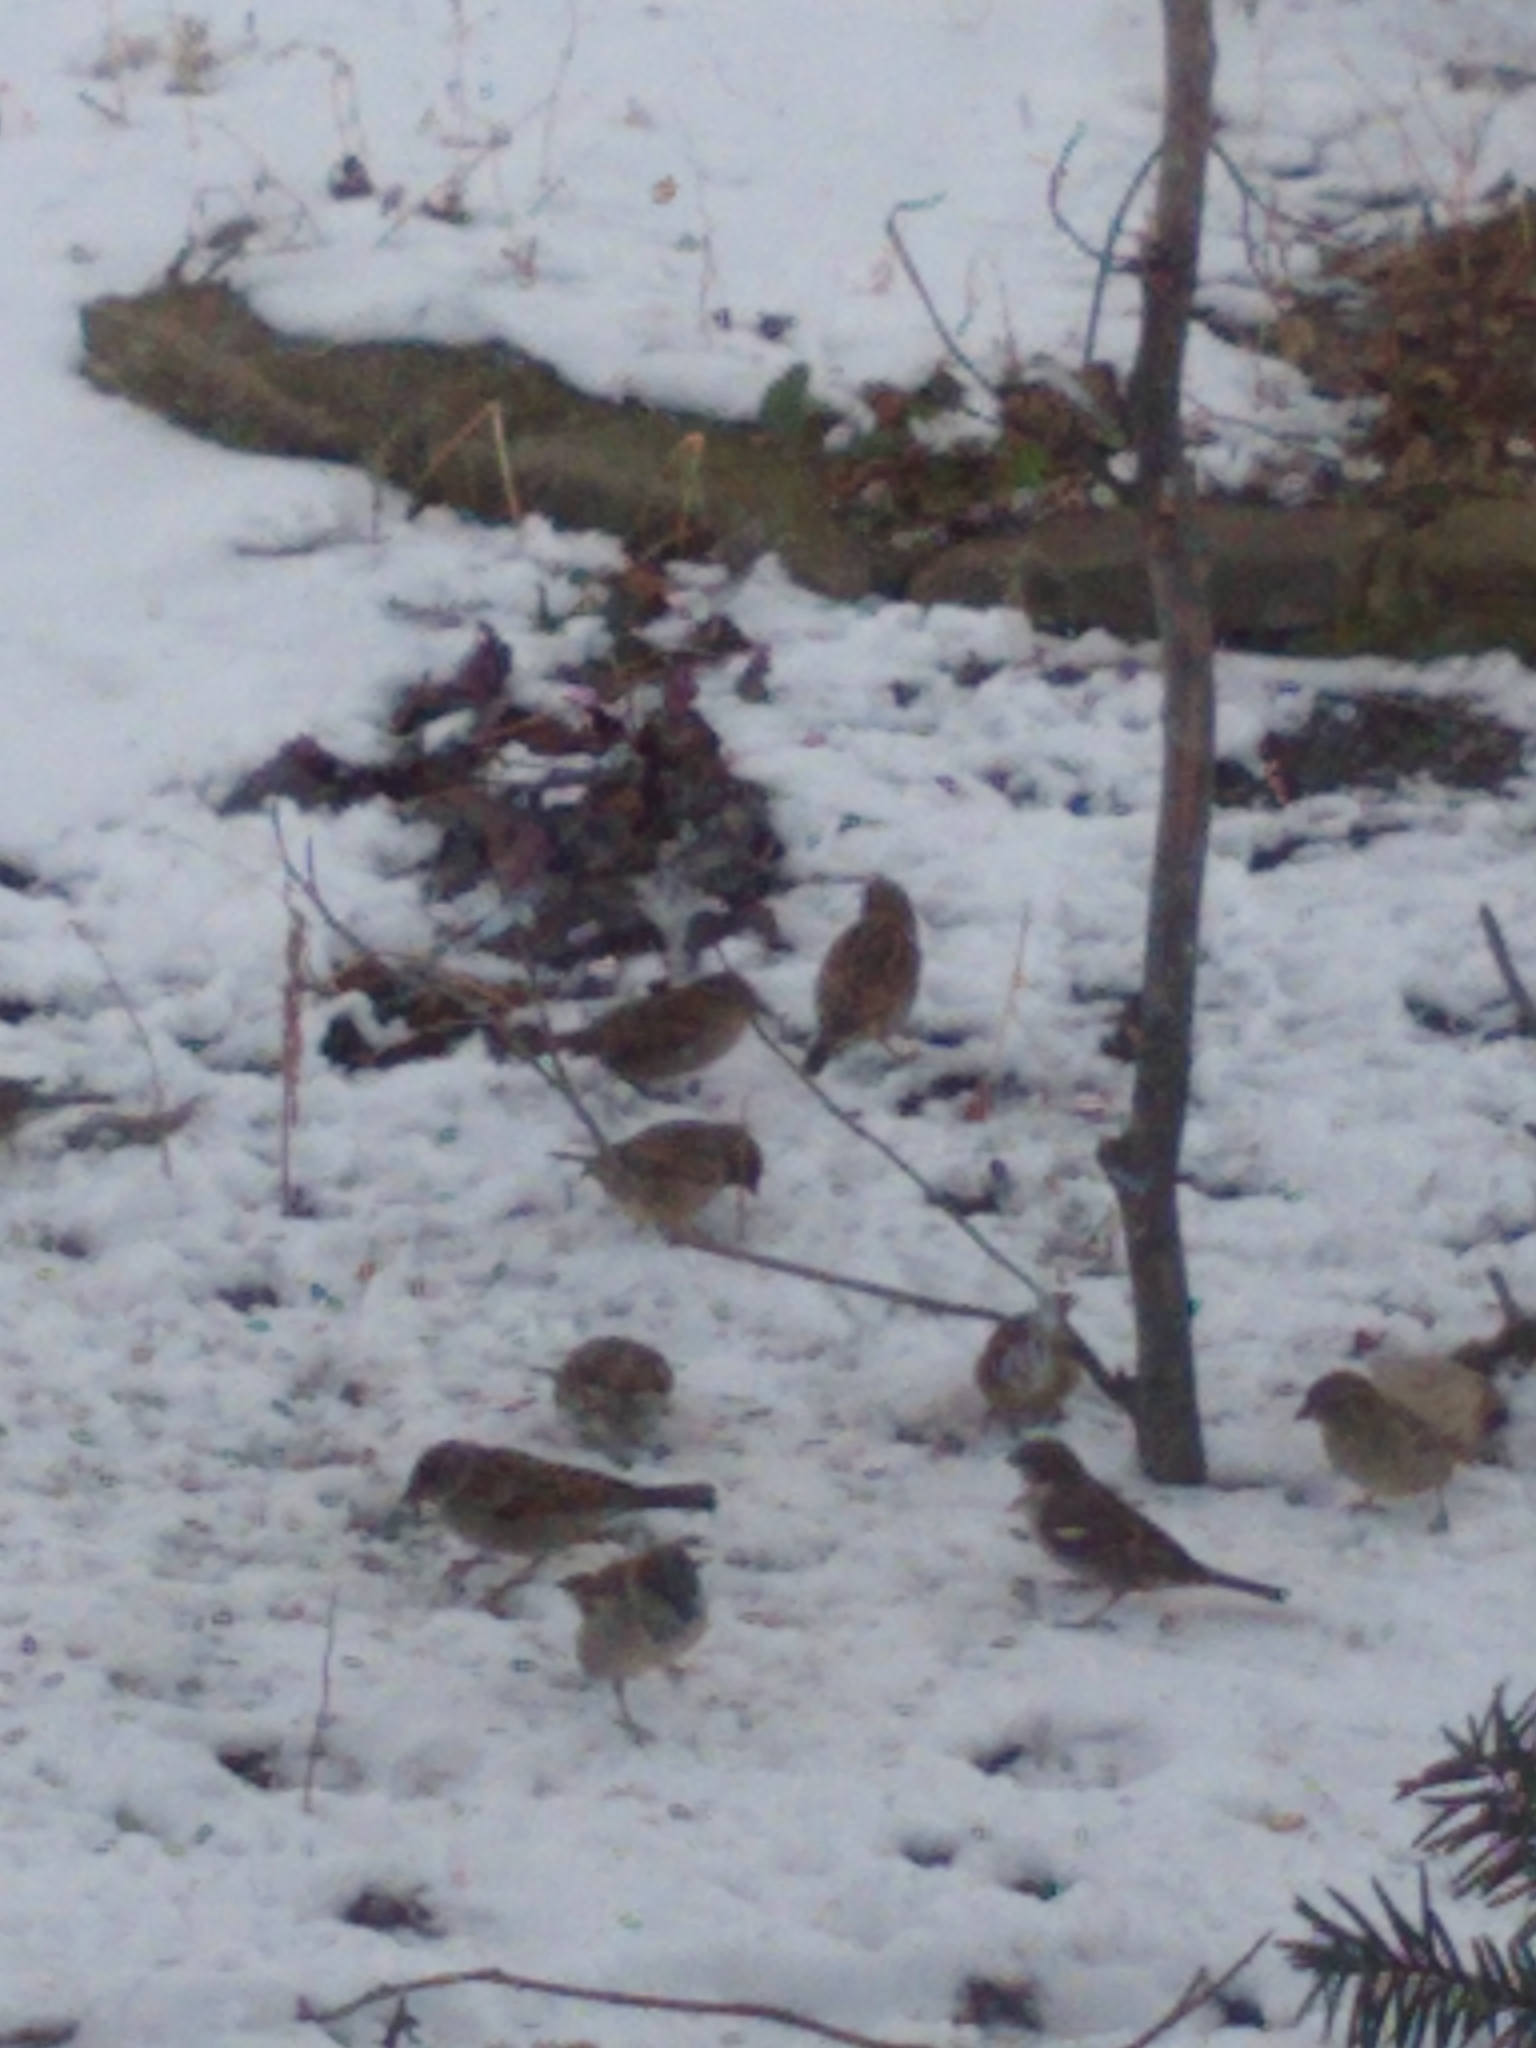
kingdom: Animalia
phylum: Chordata
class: Aves
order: Passeriformes
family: Passeridae
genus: Passer
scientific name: Passer domesticus
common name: House sparrow
